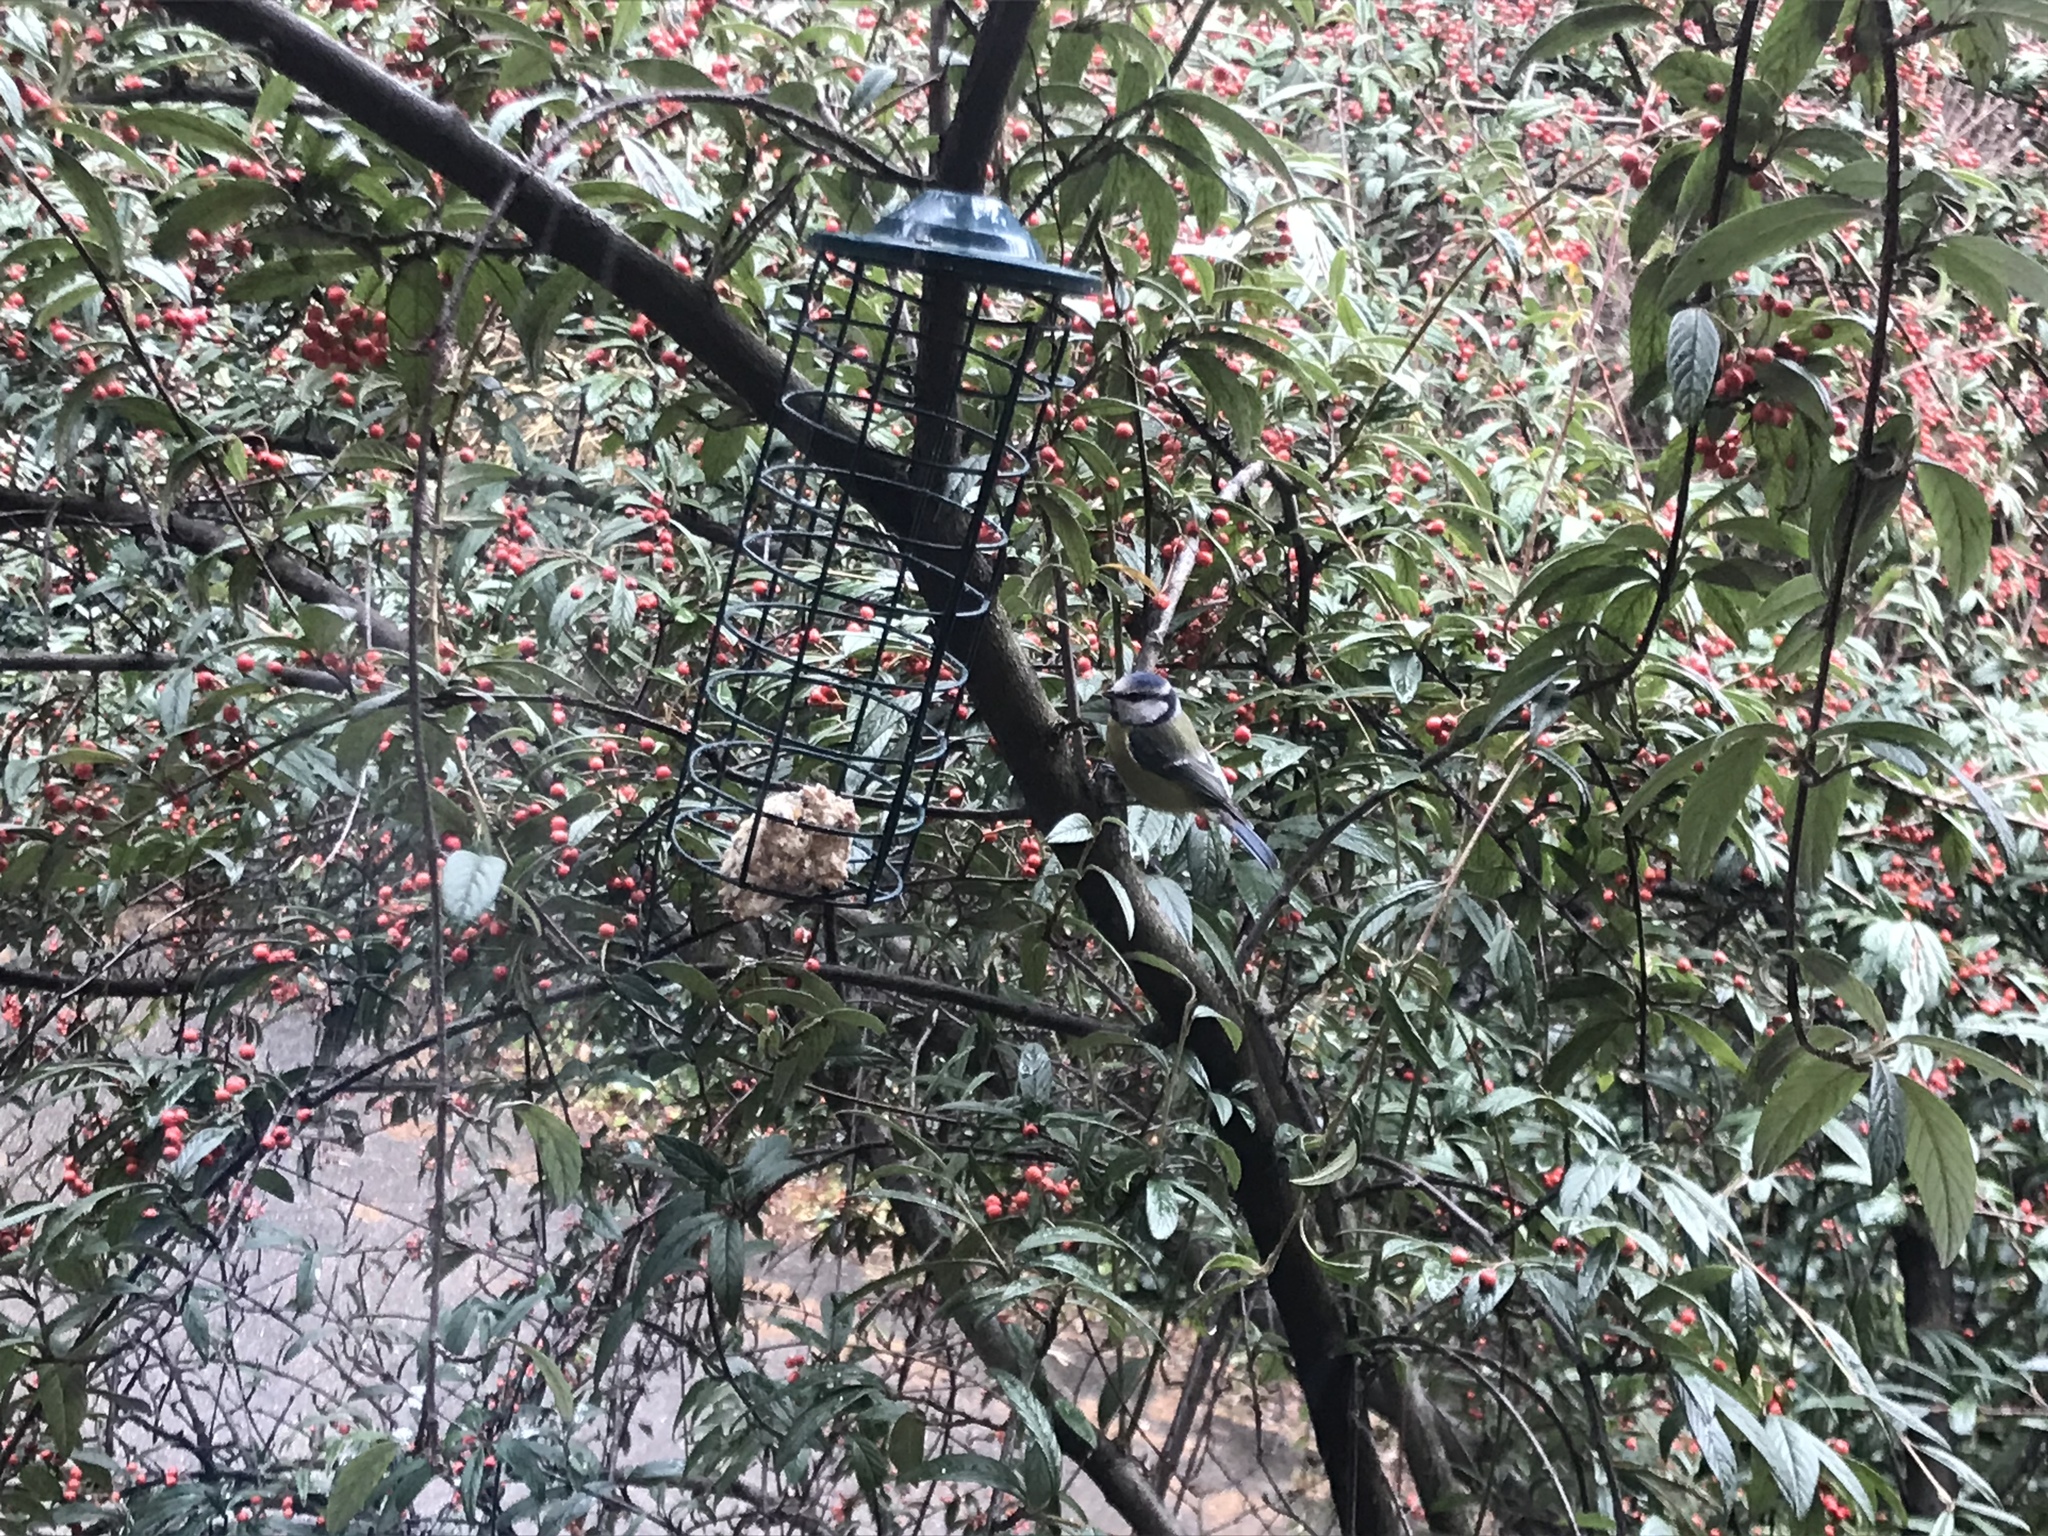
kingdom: Animalia
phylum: Chordata
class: Aves
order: Passeriformes
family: Paridae
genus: Cyanistes
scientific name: Cyanistes caeruleus
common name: Eurasian blue tit
